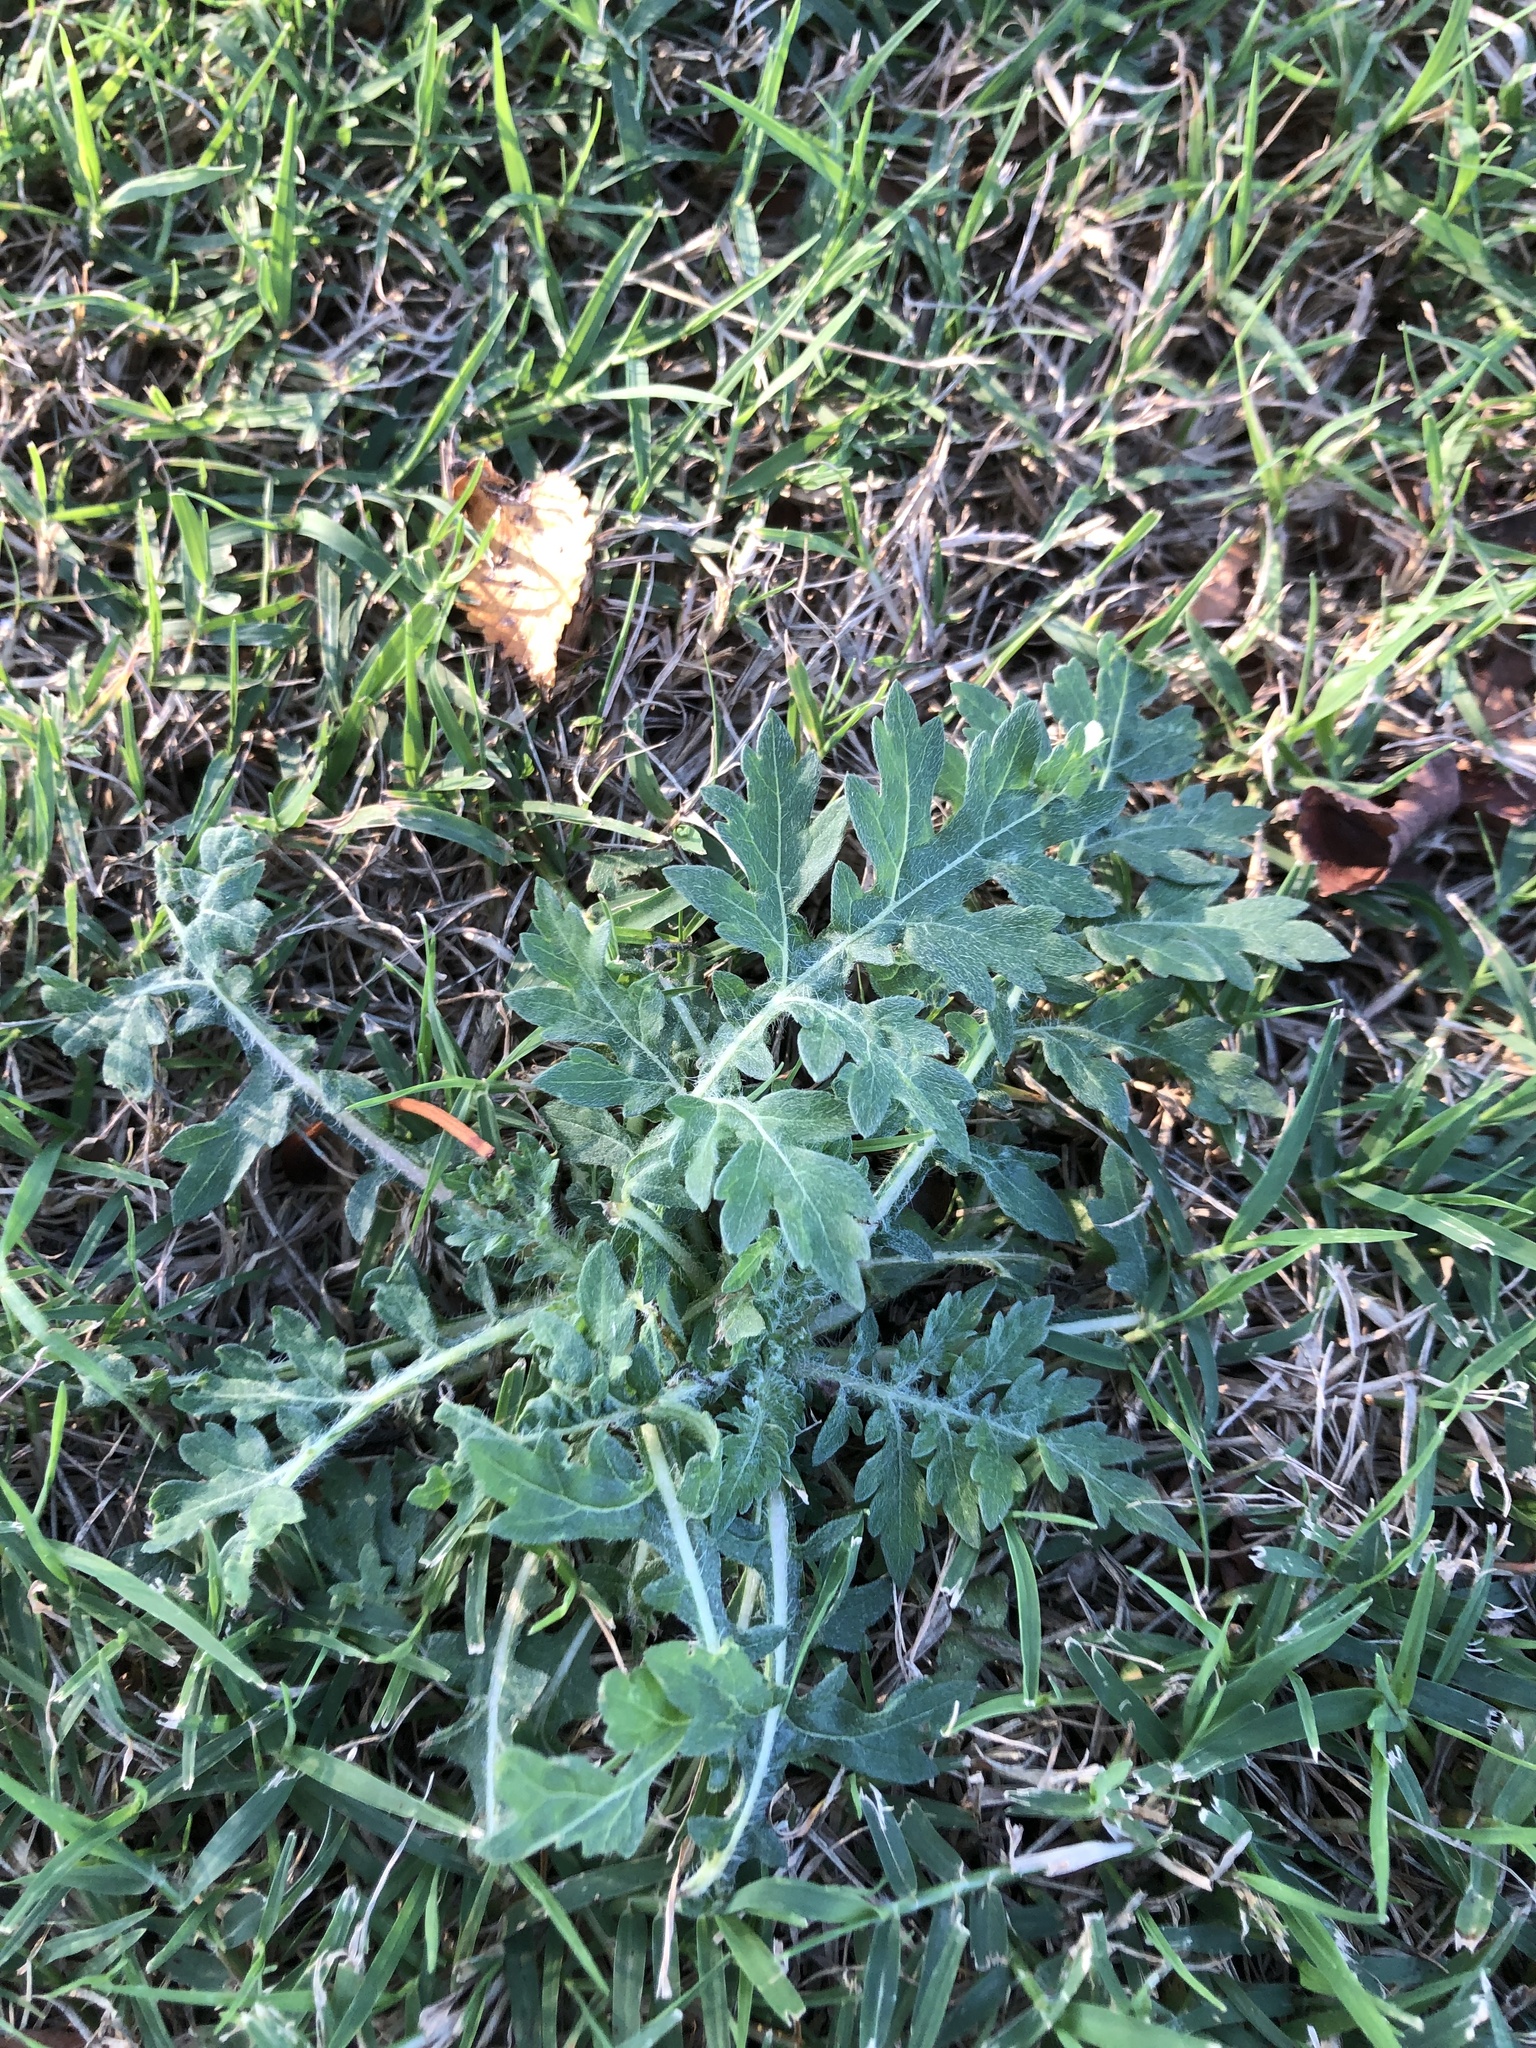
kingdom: Plantae
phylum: Tracheophyta
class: Magnoliopsida
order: Asterales
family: Asteraceae
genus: Parthenium
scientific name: Parthenium hysterophorus
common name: Santa maria feverfew
